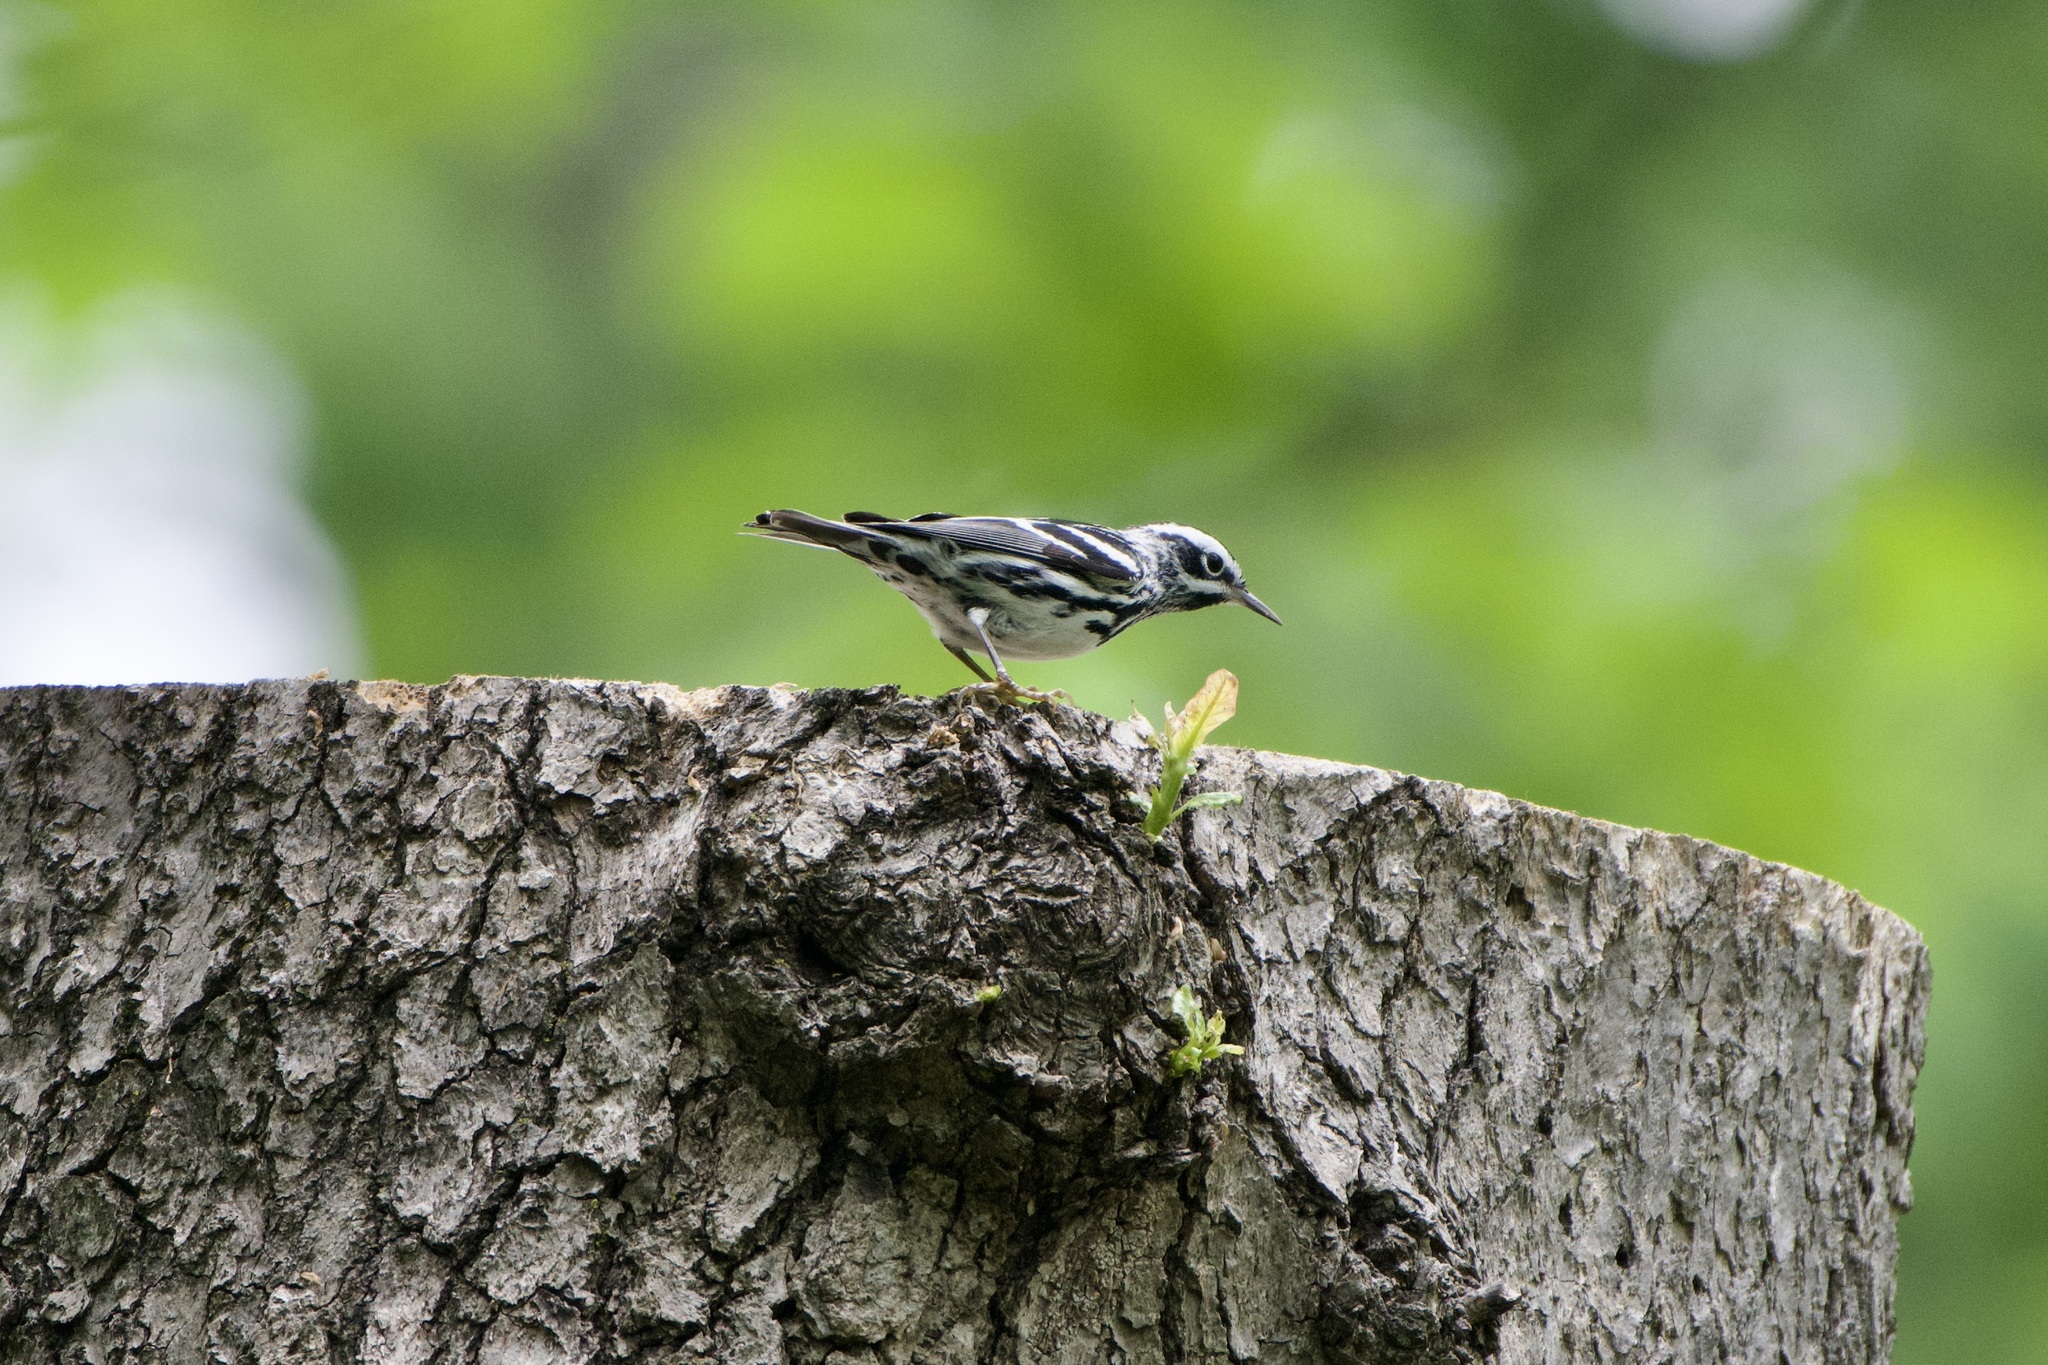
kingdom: Animalia
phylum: Chordata
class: Aves
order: Passeriformes
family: Parulidae
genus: Mniotilta
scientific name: Mniotilta varia
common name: Black-and-white warbler
